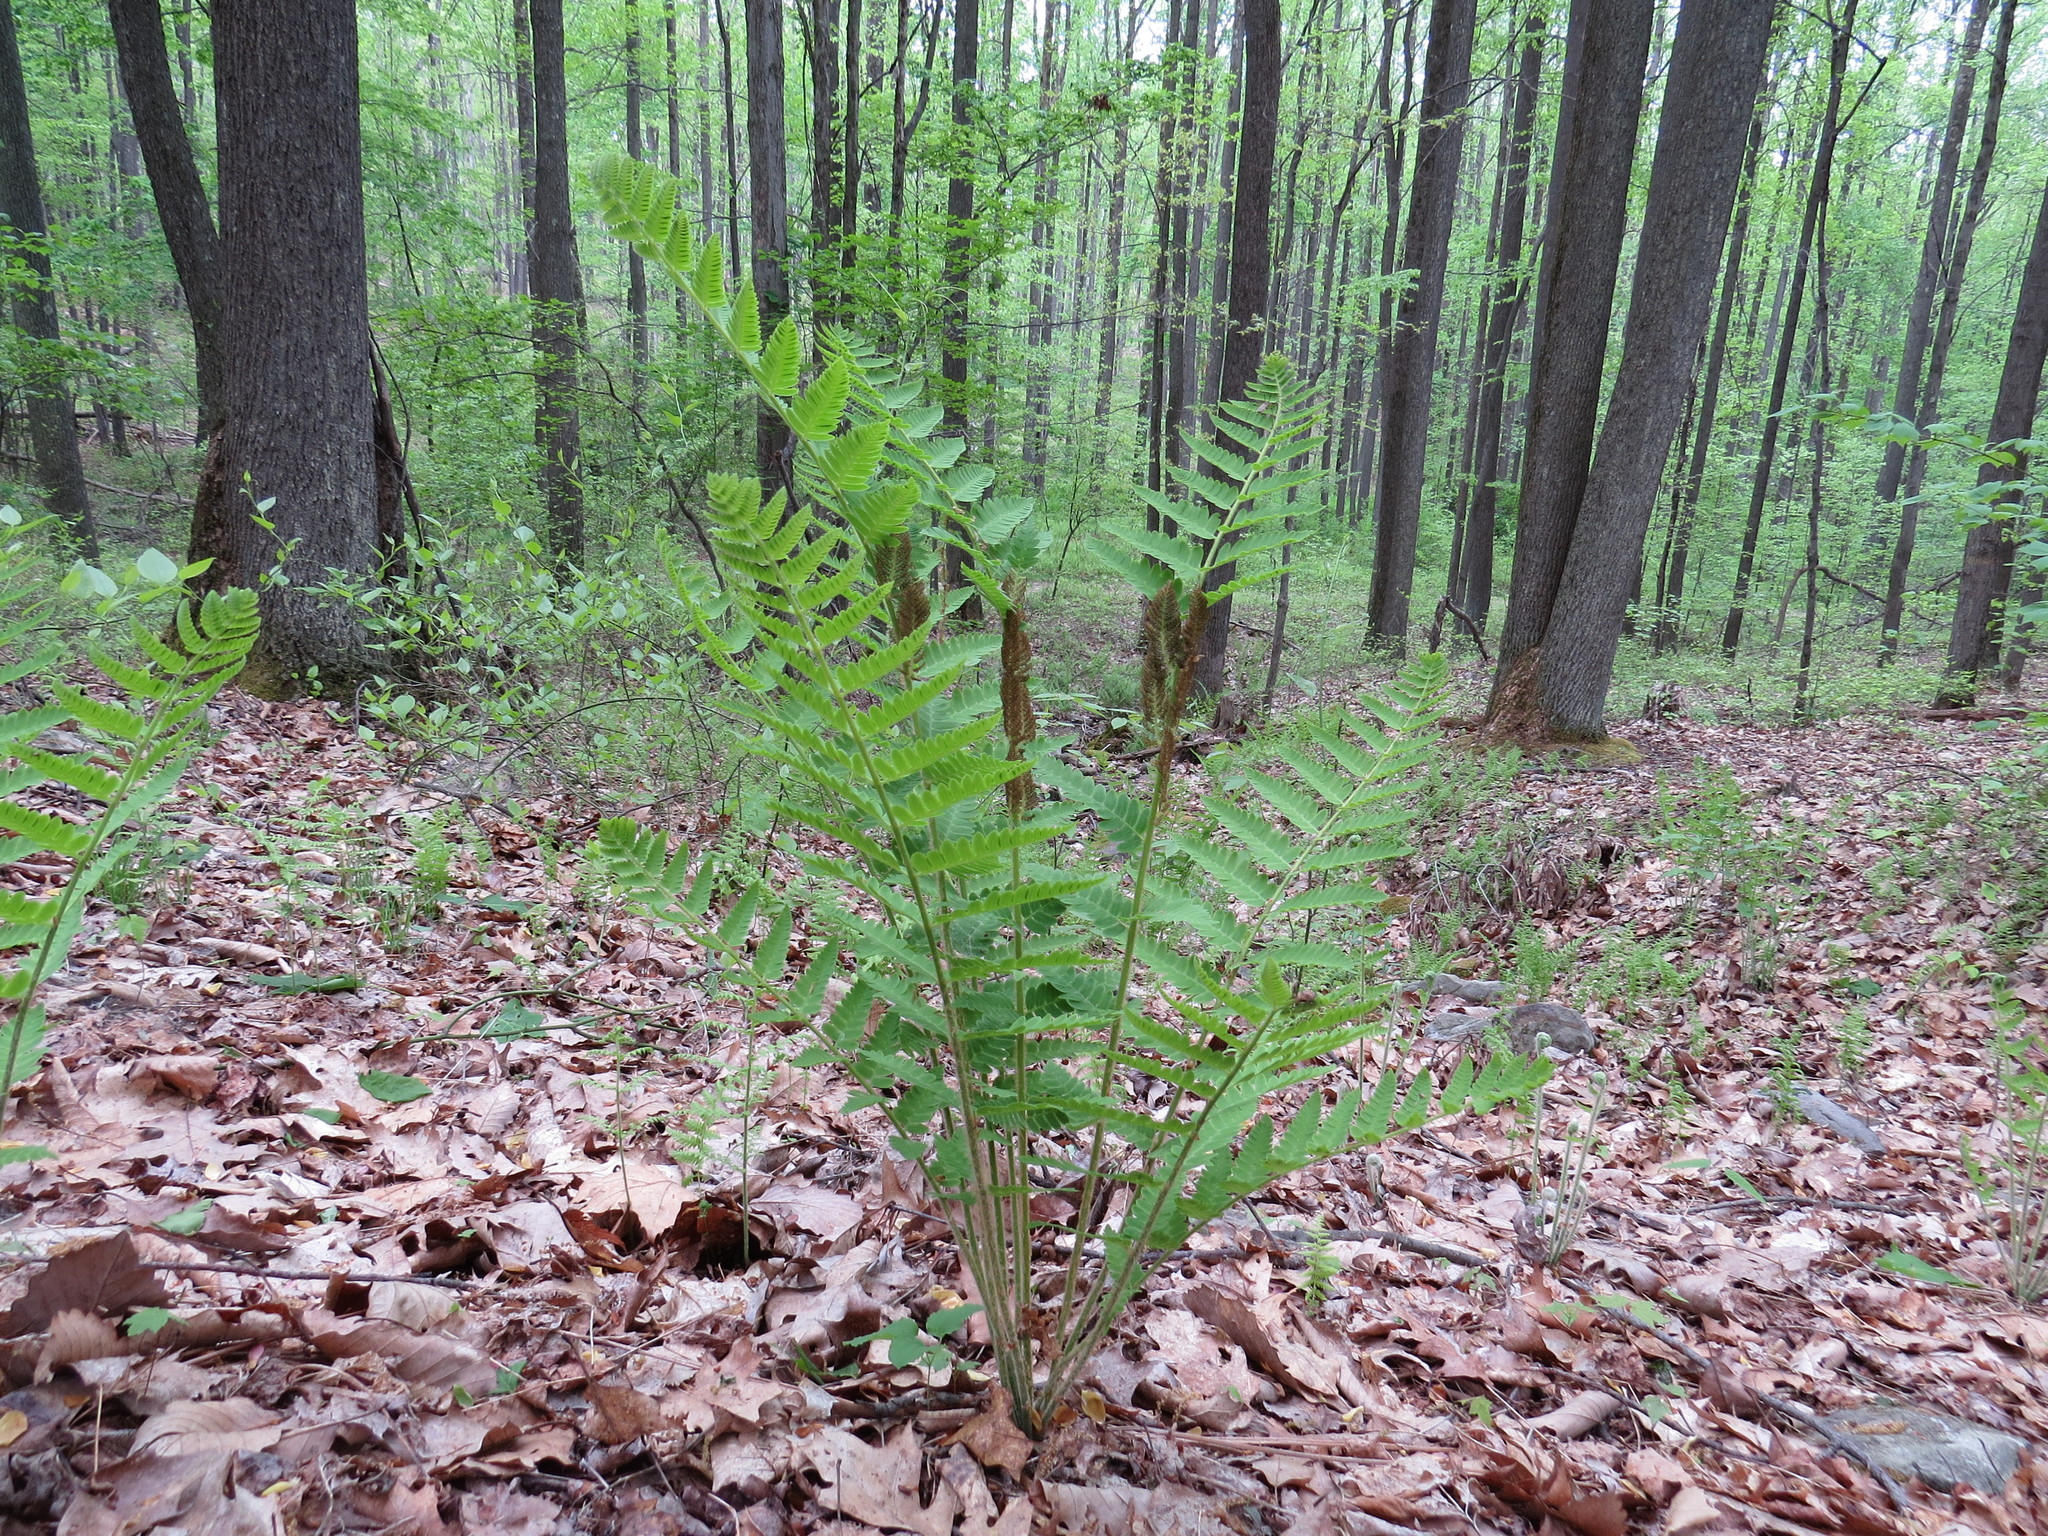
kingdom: Plantae
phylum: Tracheophyta
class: Polypodiopsida
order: Osmundales
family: Osmundaceae
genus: Claytosmunda
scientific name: Claytosmunda claytoniana
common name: Clayton's fern
